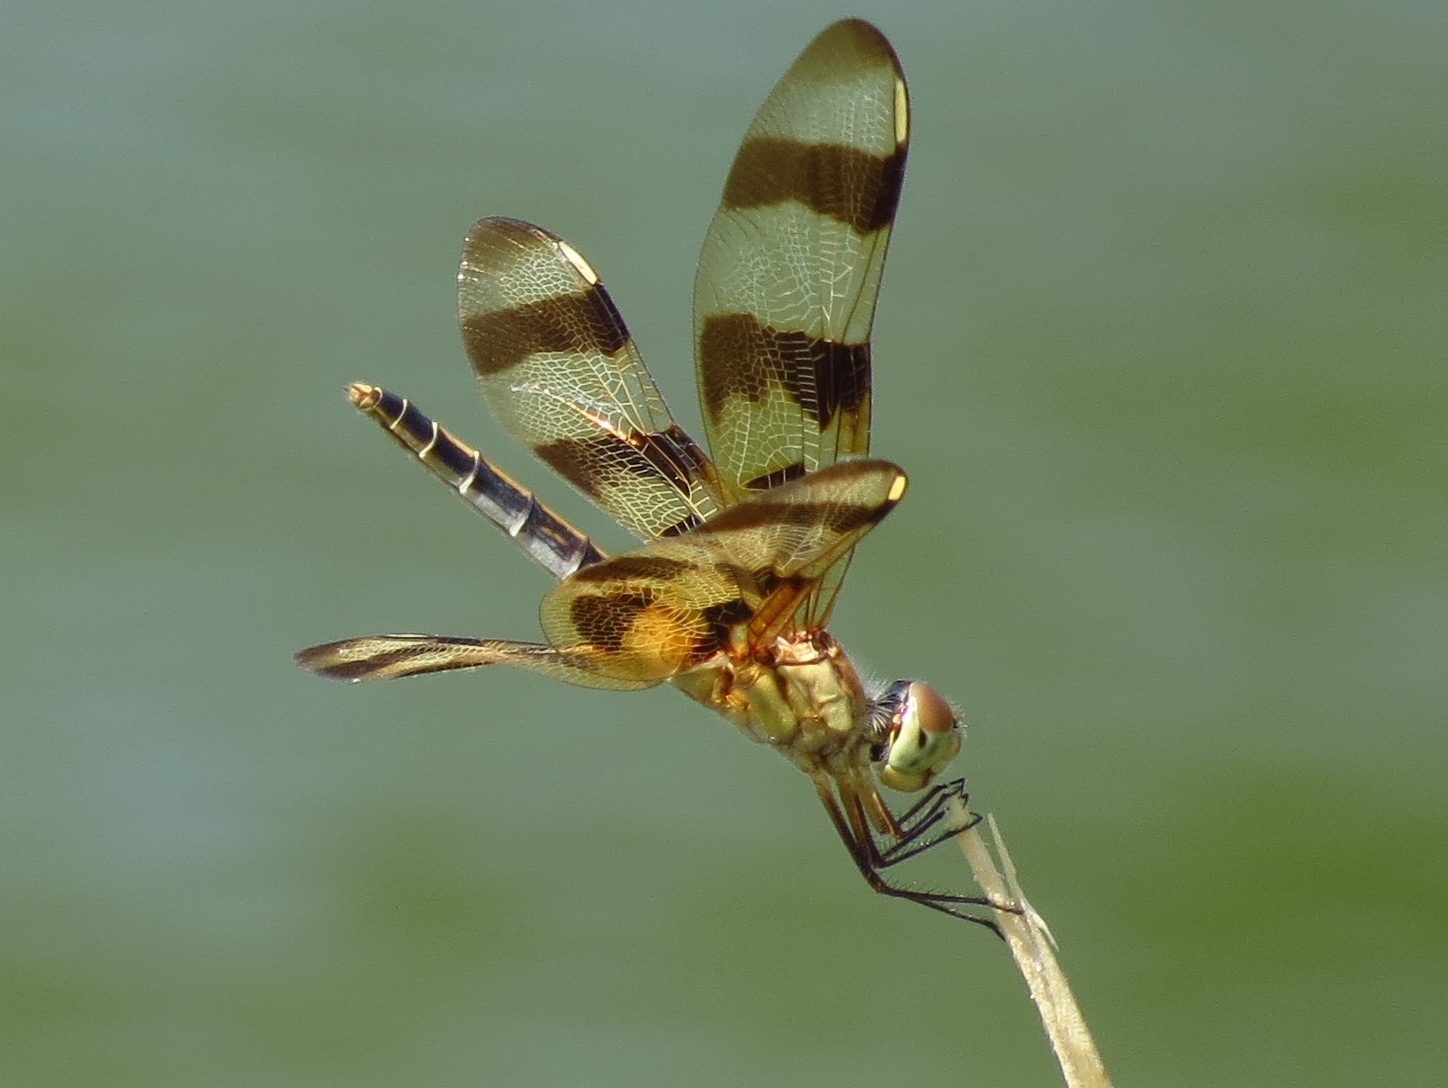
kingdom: Animalia
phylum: Arthropoda
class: Insecta
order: Odonata
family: Libellulidae
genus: Celithemis
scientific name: Celithemis eponina
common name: Halloween pennant
